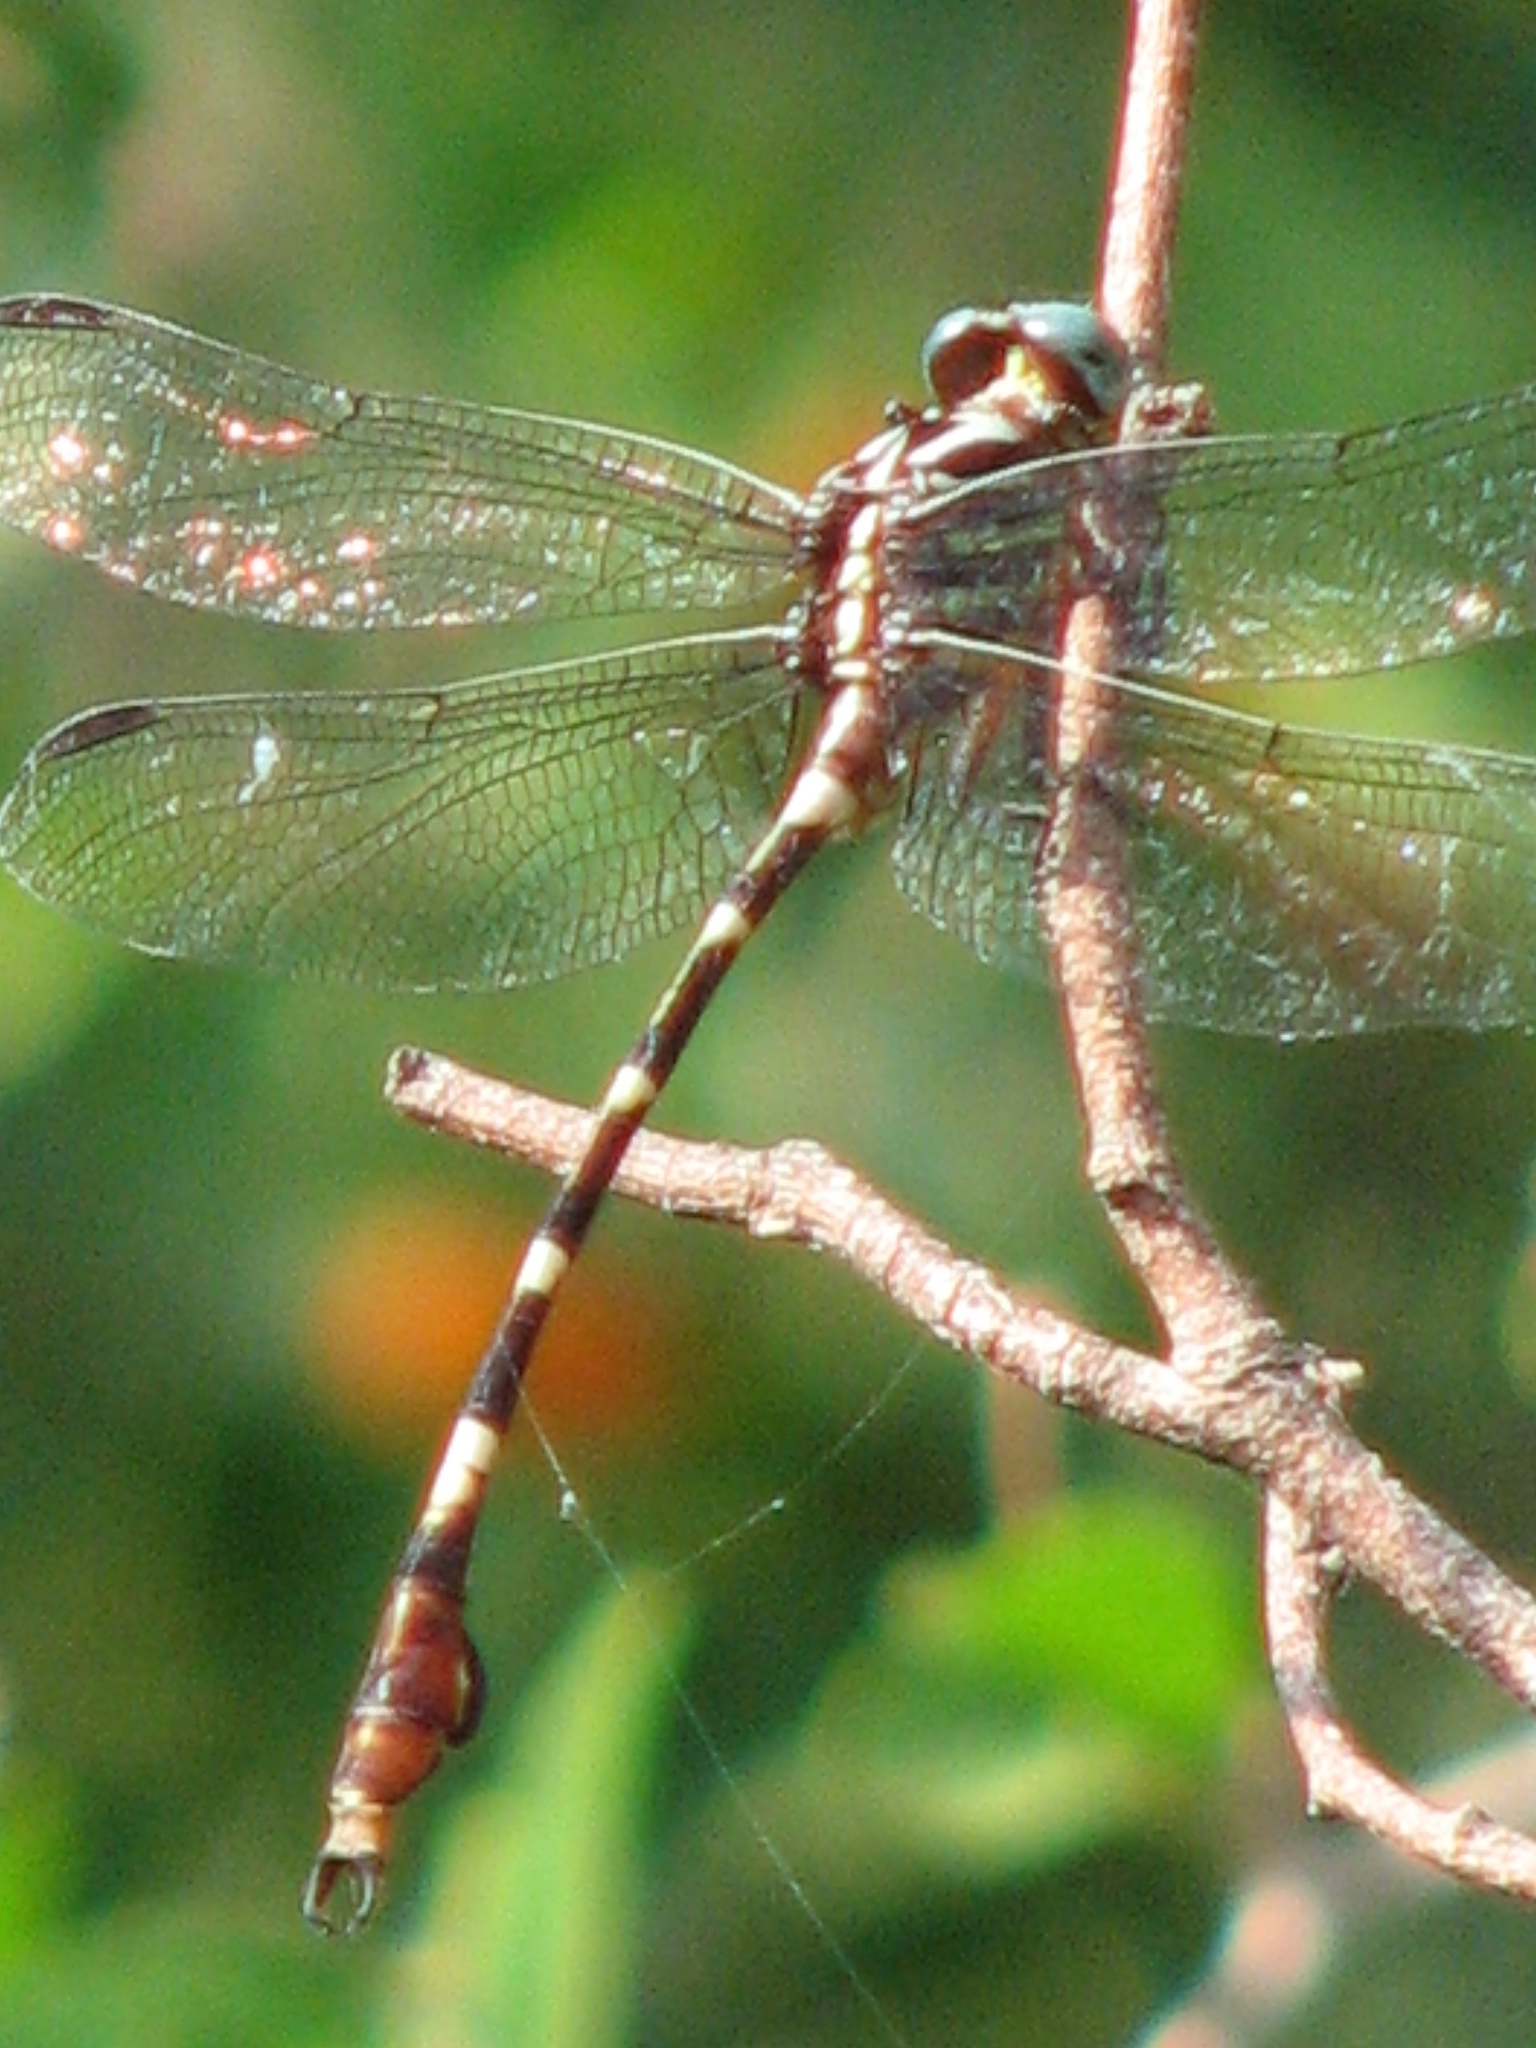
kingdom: Animalia
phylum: Arthropoda
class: Insecta
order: Odonata
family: Gomphidae
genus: Phyllocycla
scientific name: Phyllocycla breviphylla
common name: Ringed forceptail
